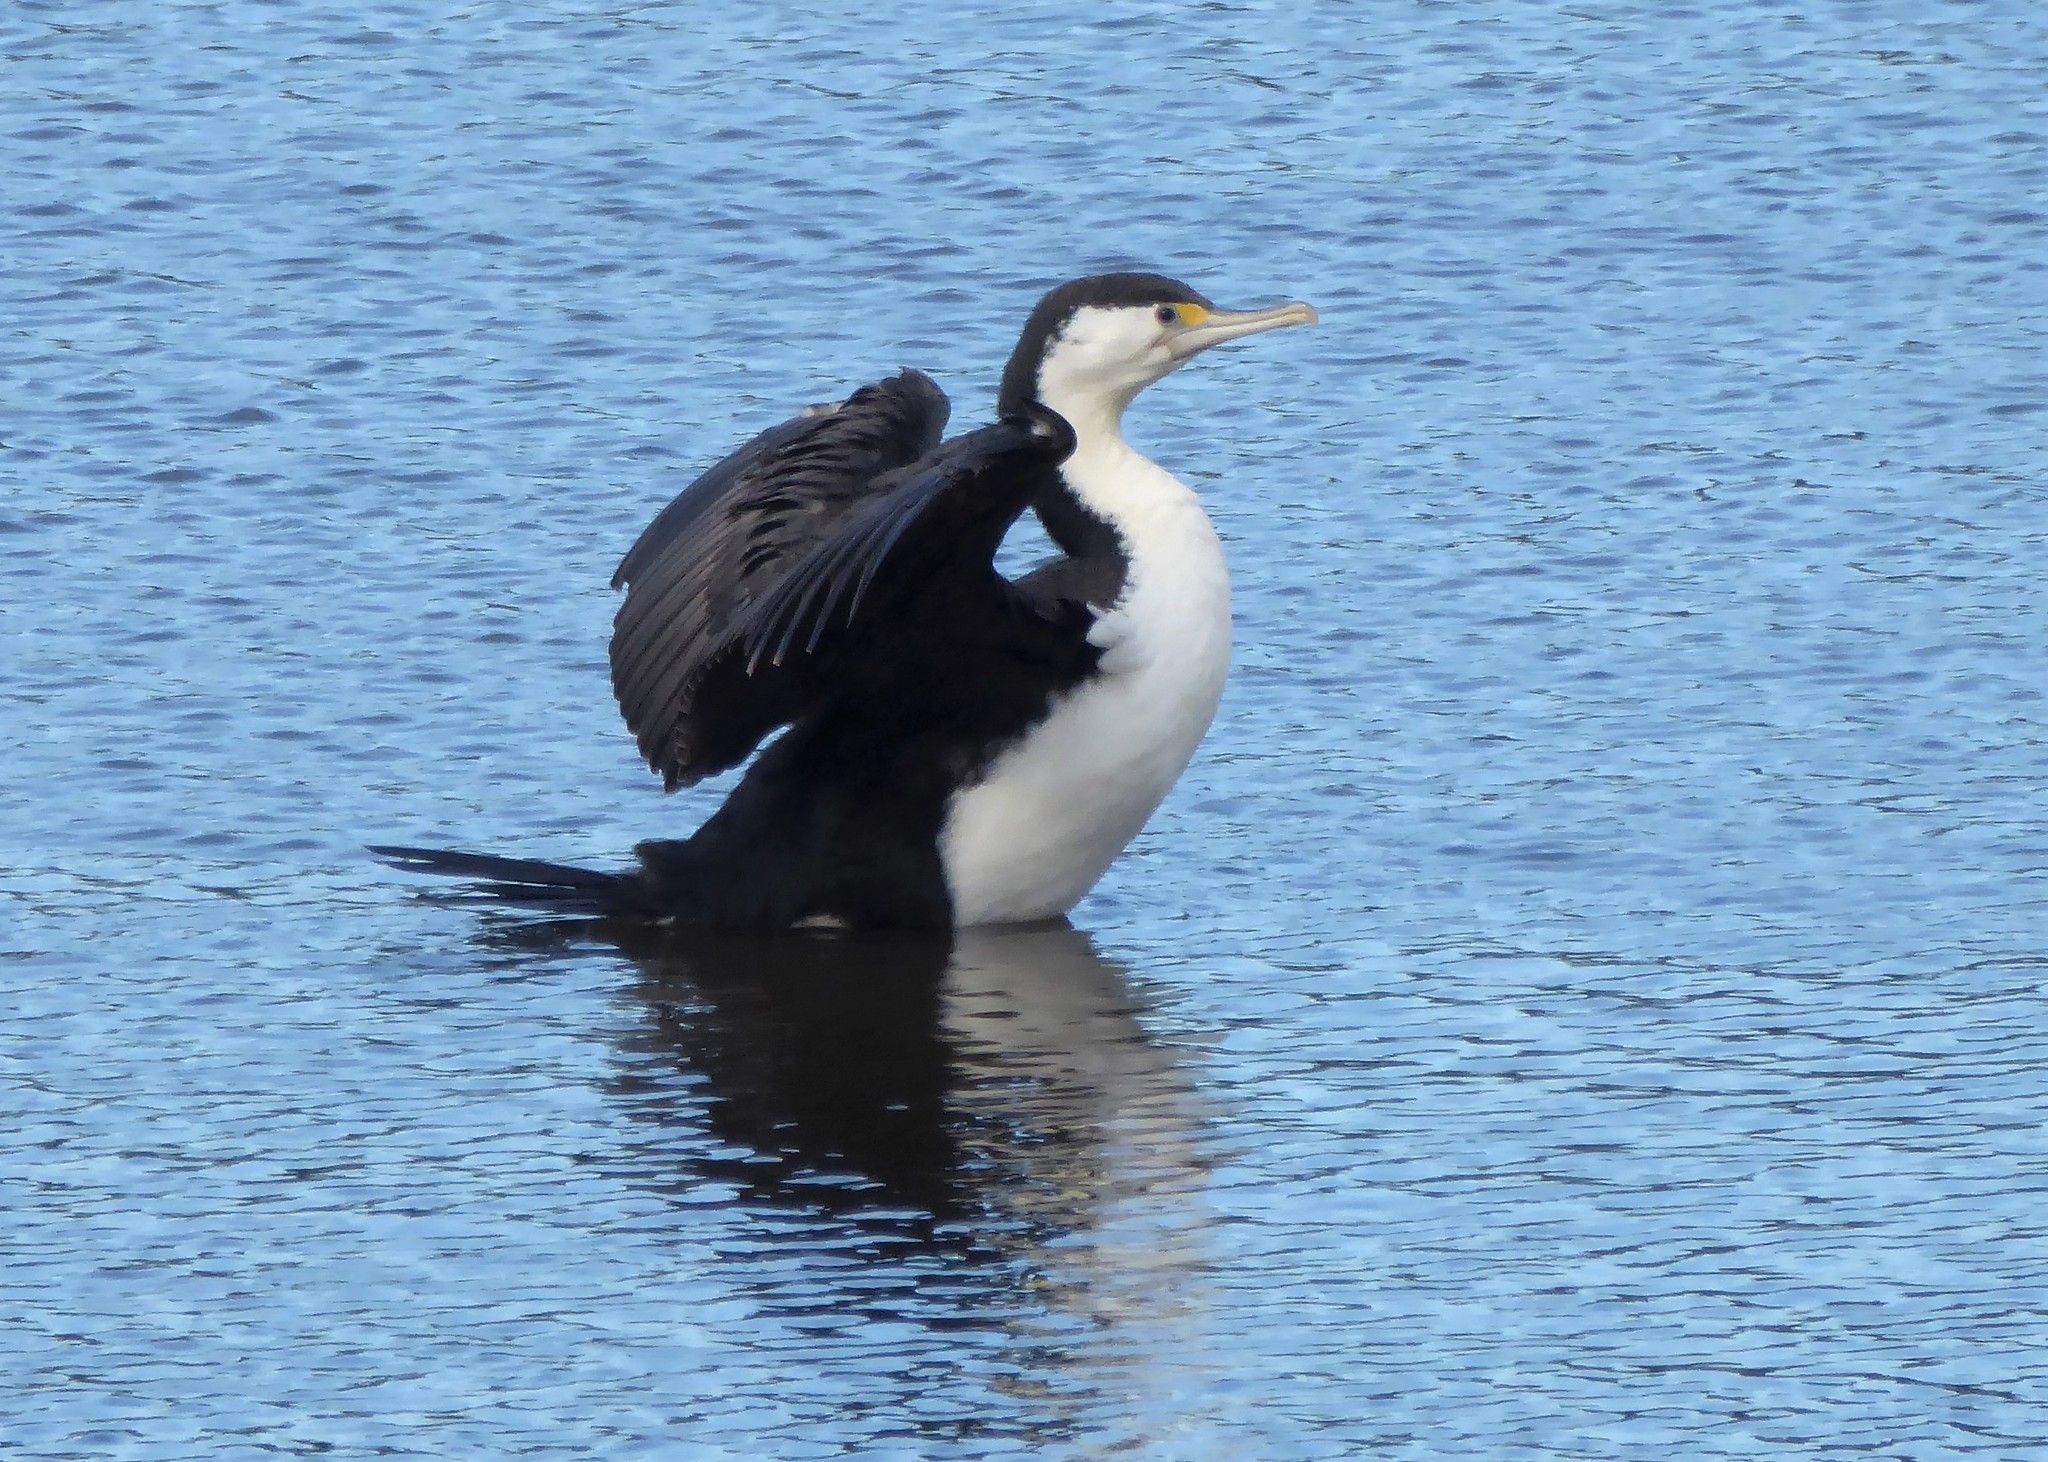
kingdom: Animalia
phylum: Chordata
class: Aves
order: Suliformes
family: Phalacrocoracidae
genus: Phalacrocorax
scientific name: Phalacrocorax varius
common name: Pied cormorant
